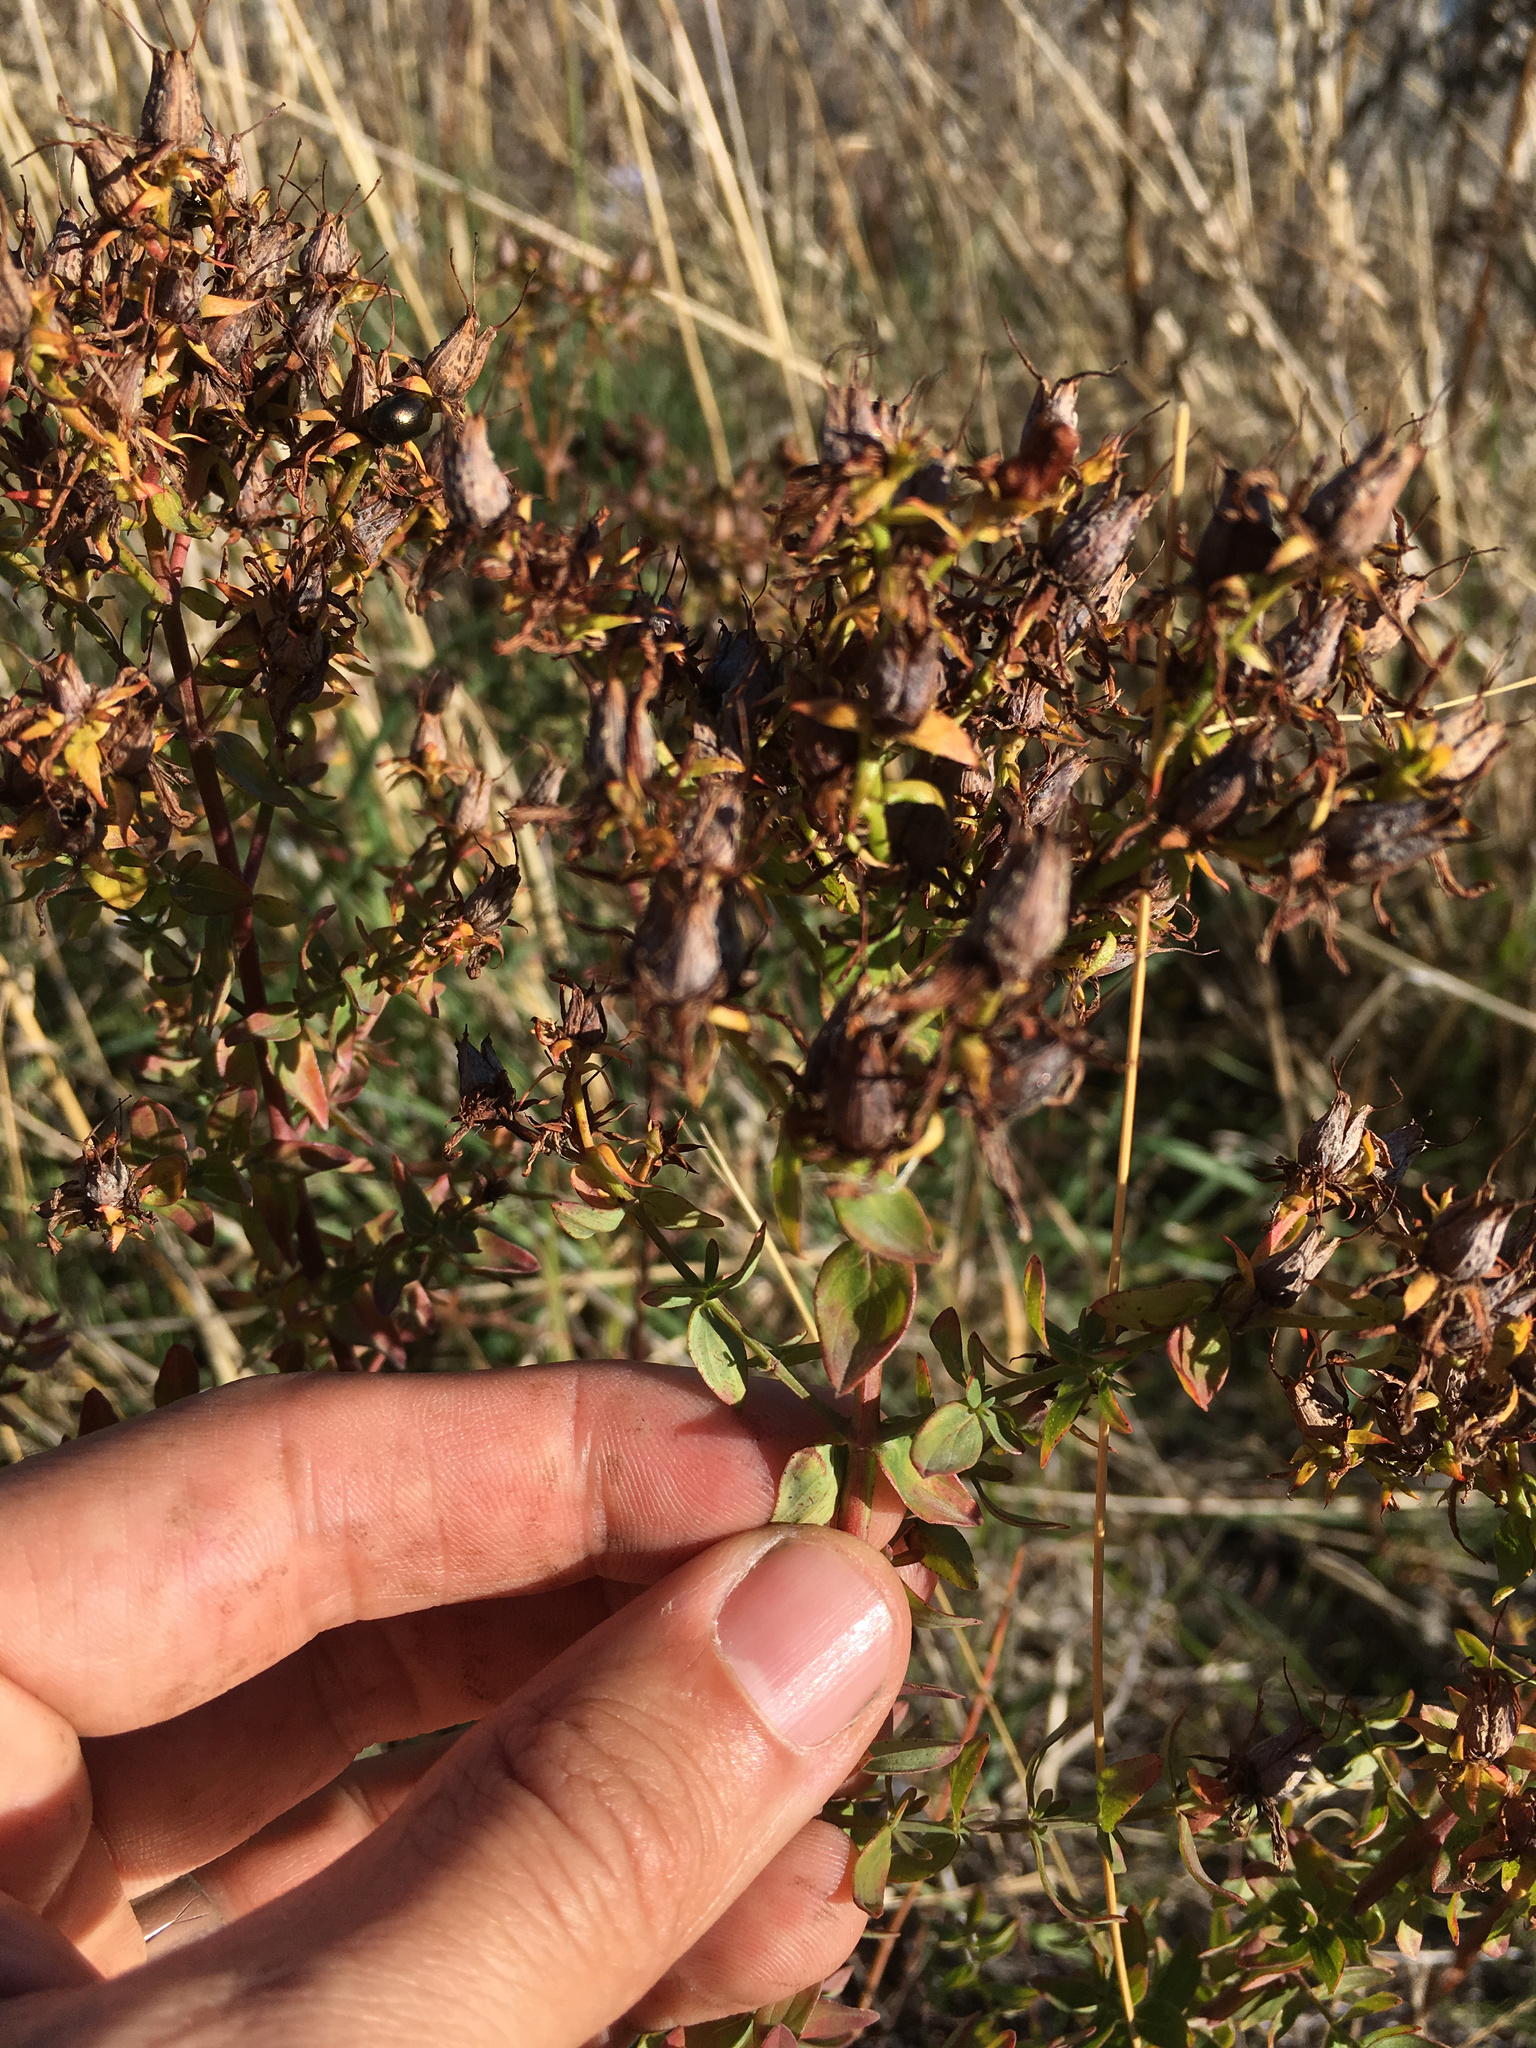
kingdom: Plantae
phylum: Tracheophyta
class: Magnoliopsida
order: Malpighiales
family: Hypericaceae
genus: Hypericum
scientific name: Hypericum perforatum
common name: Common st. johnswort
